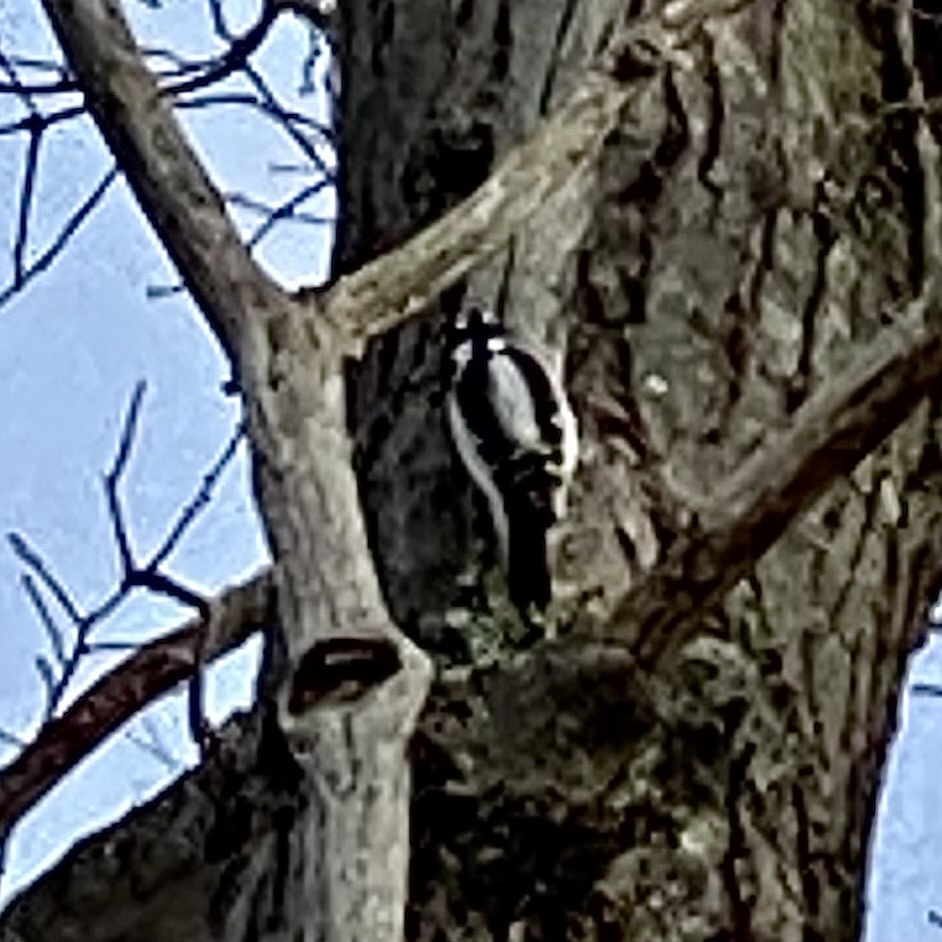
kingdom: Animalia
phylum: Chordata
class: Aves
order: Piciformes
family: Picidae
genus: Leuconotopicus
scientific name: Leuconotopicus villosus
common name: Hairy woodpecker
